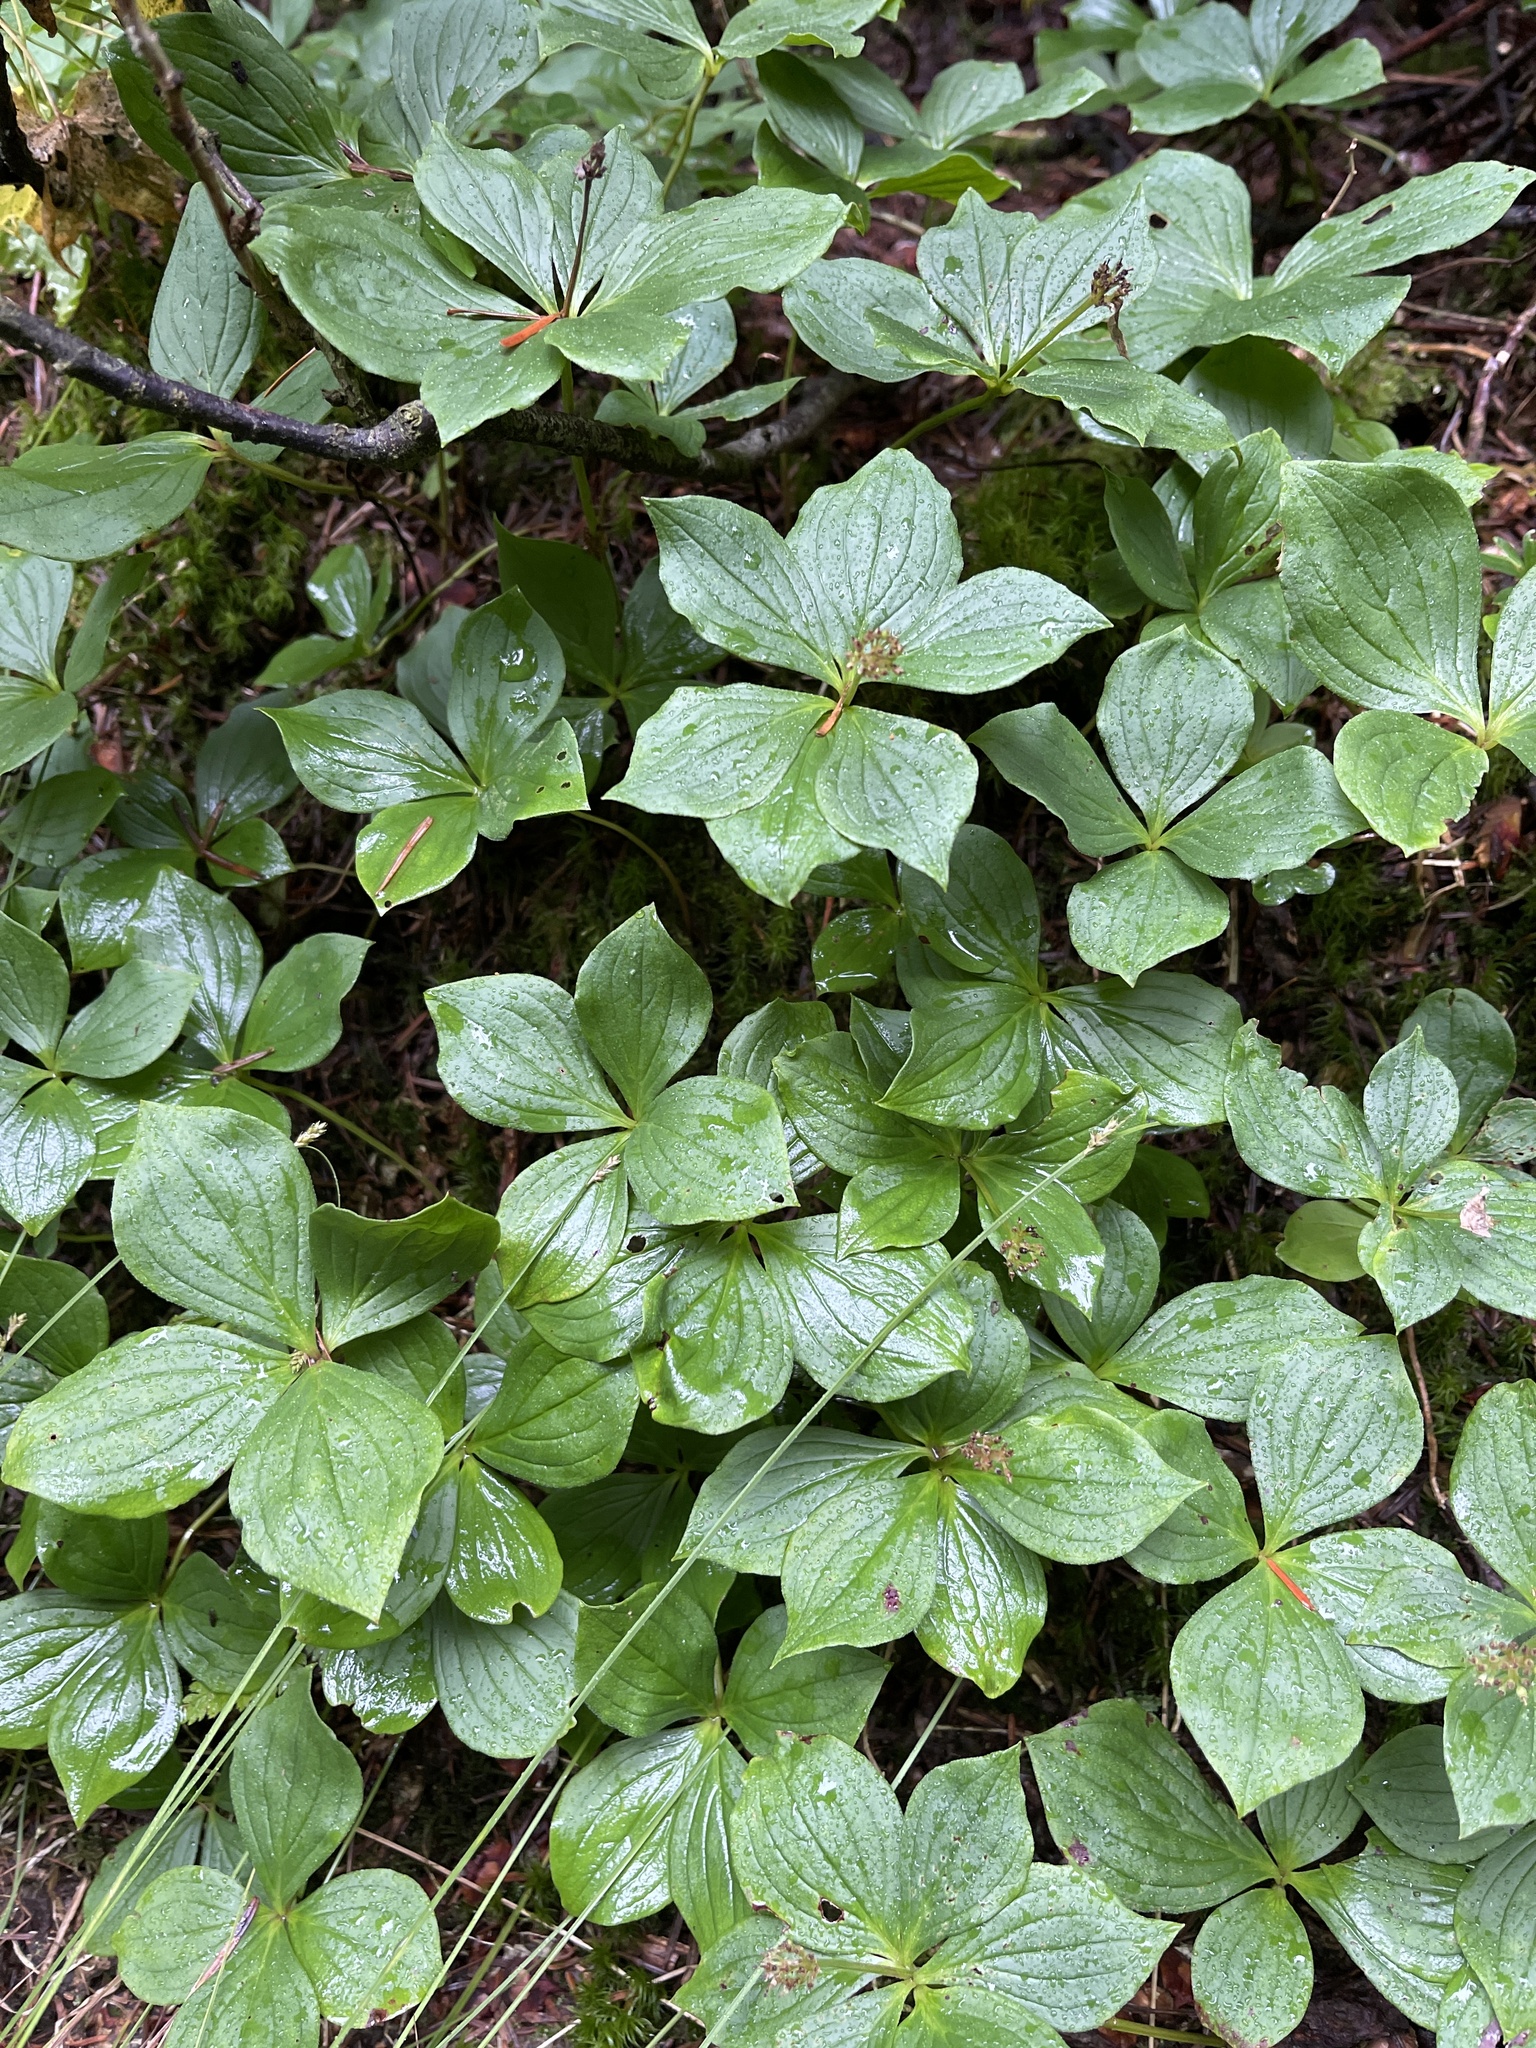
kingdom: Plantae
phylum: Tracheophyta
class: Magnoliopsida
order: Cornales
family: Cornaceae
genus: Cornus
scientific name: Cornus canadensis
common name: Creeping dogwood
